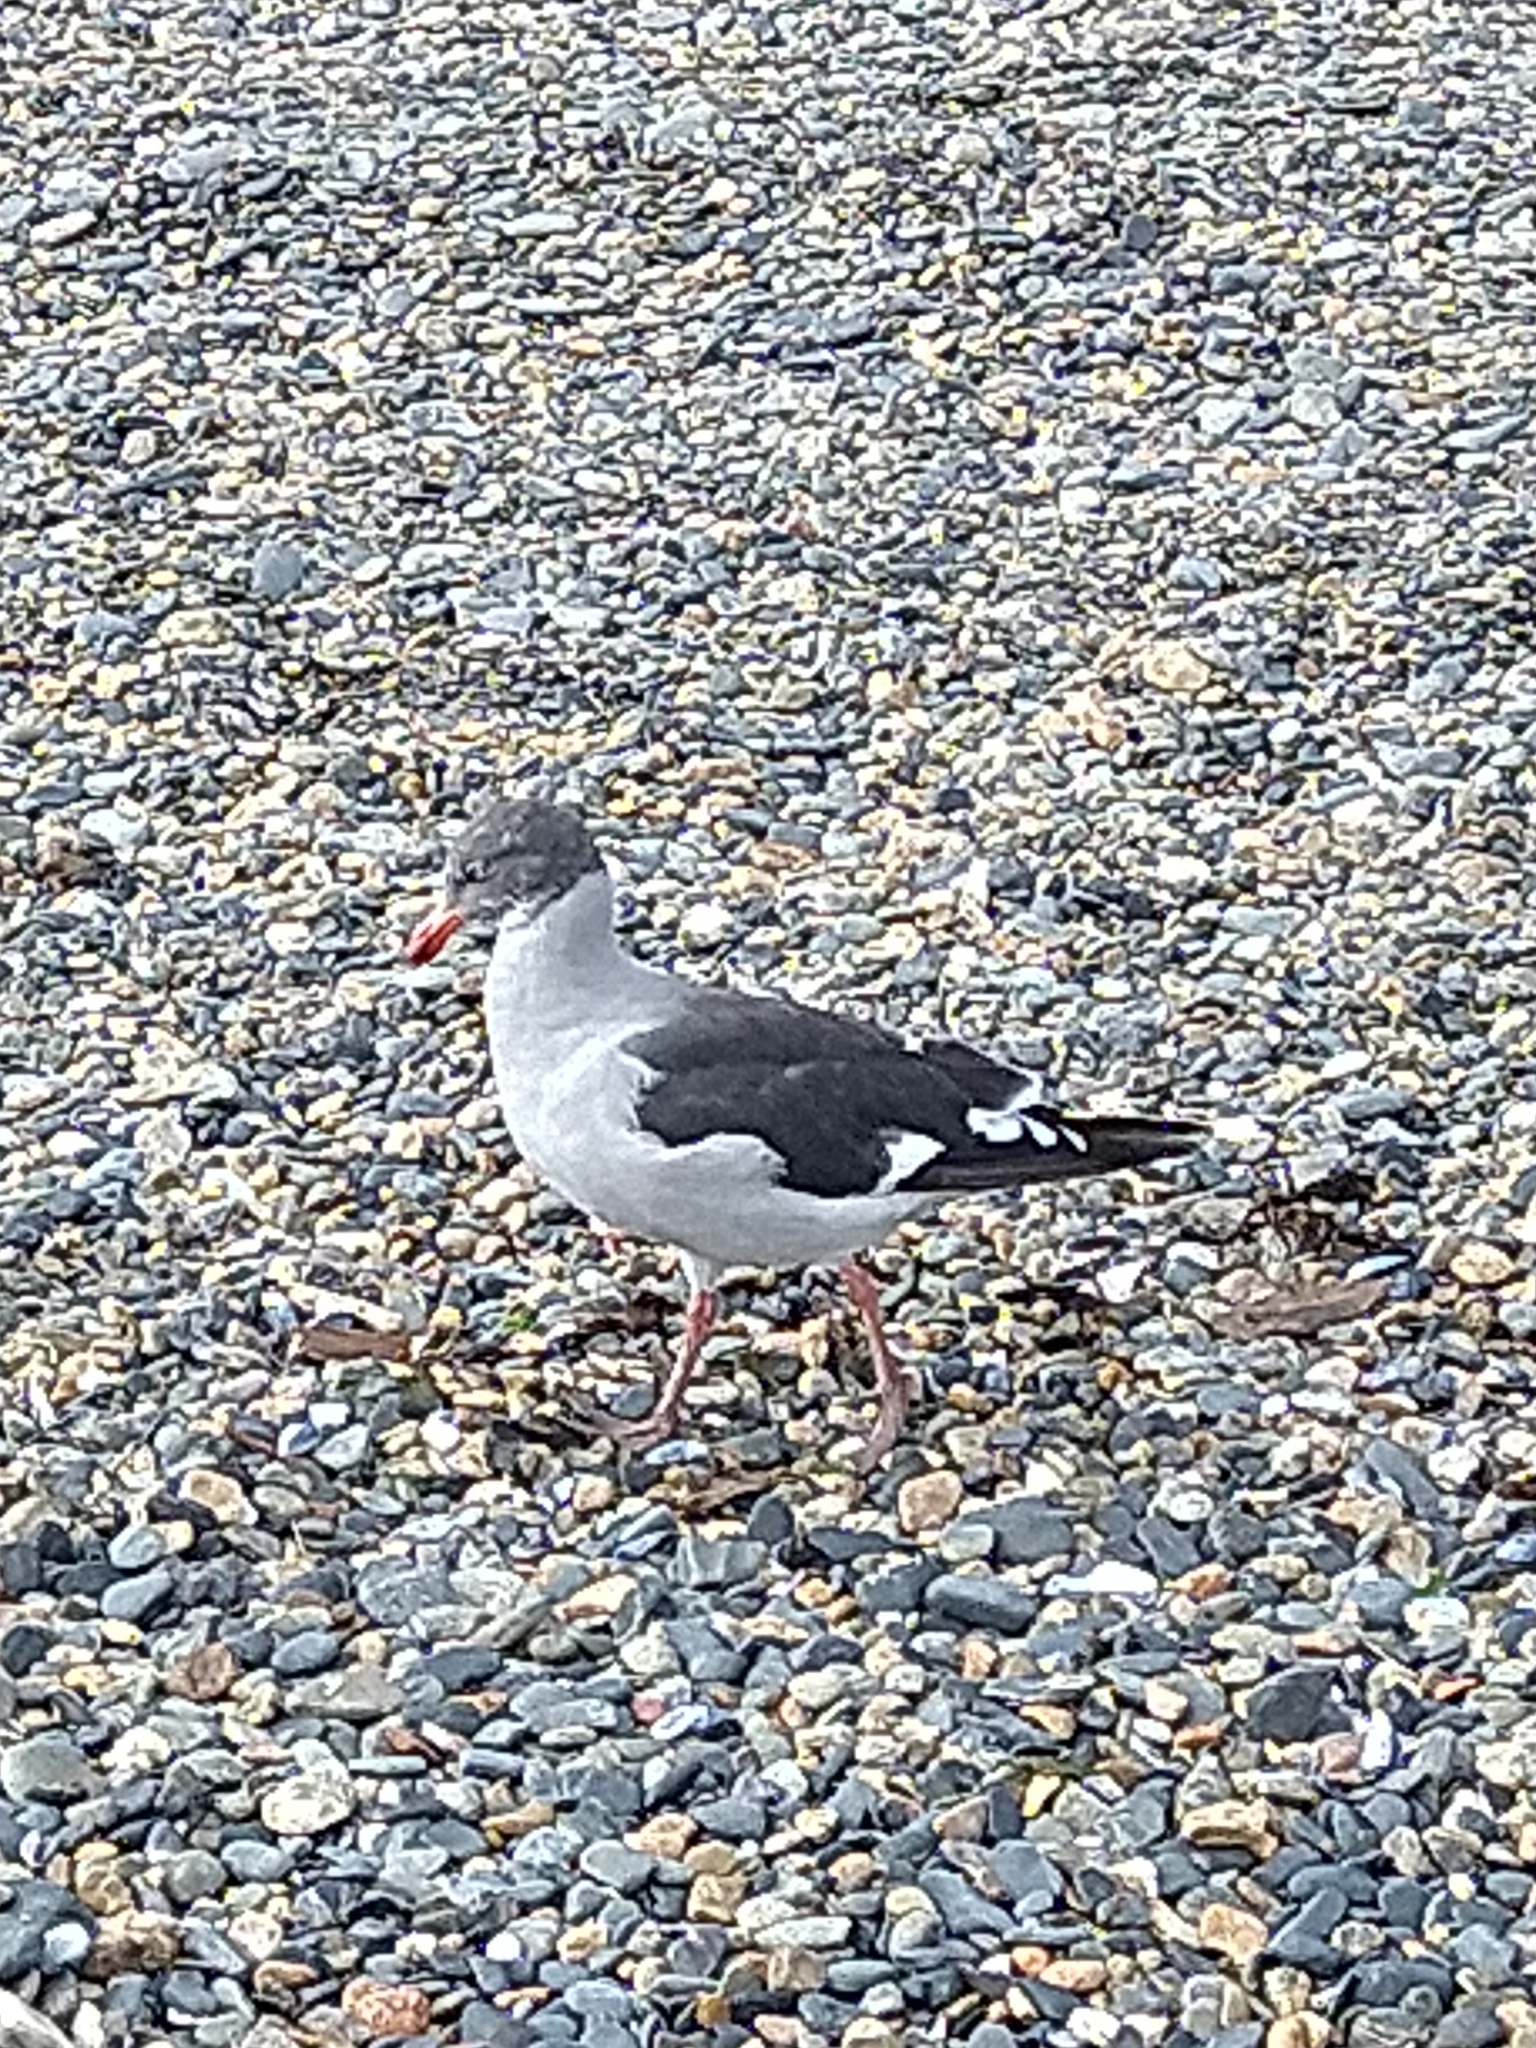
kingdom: Animalia
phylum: Chordata
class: Aves
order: Charadriiformes
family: Laridae
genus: Leucophaeus
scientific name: Leucophaeus scoresbii
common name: Dolphin gull
